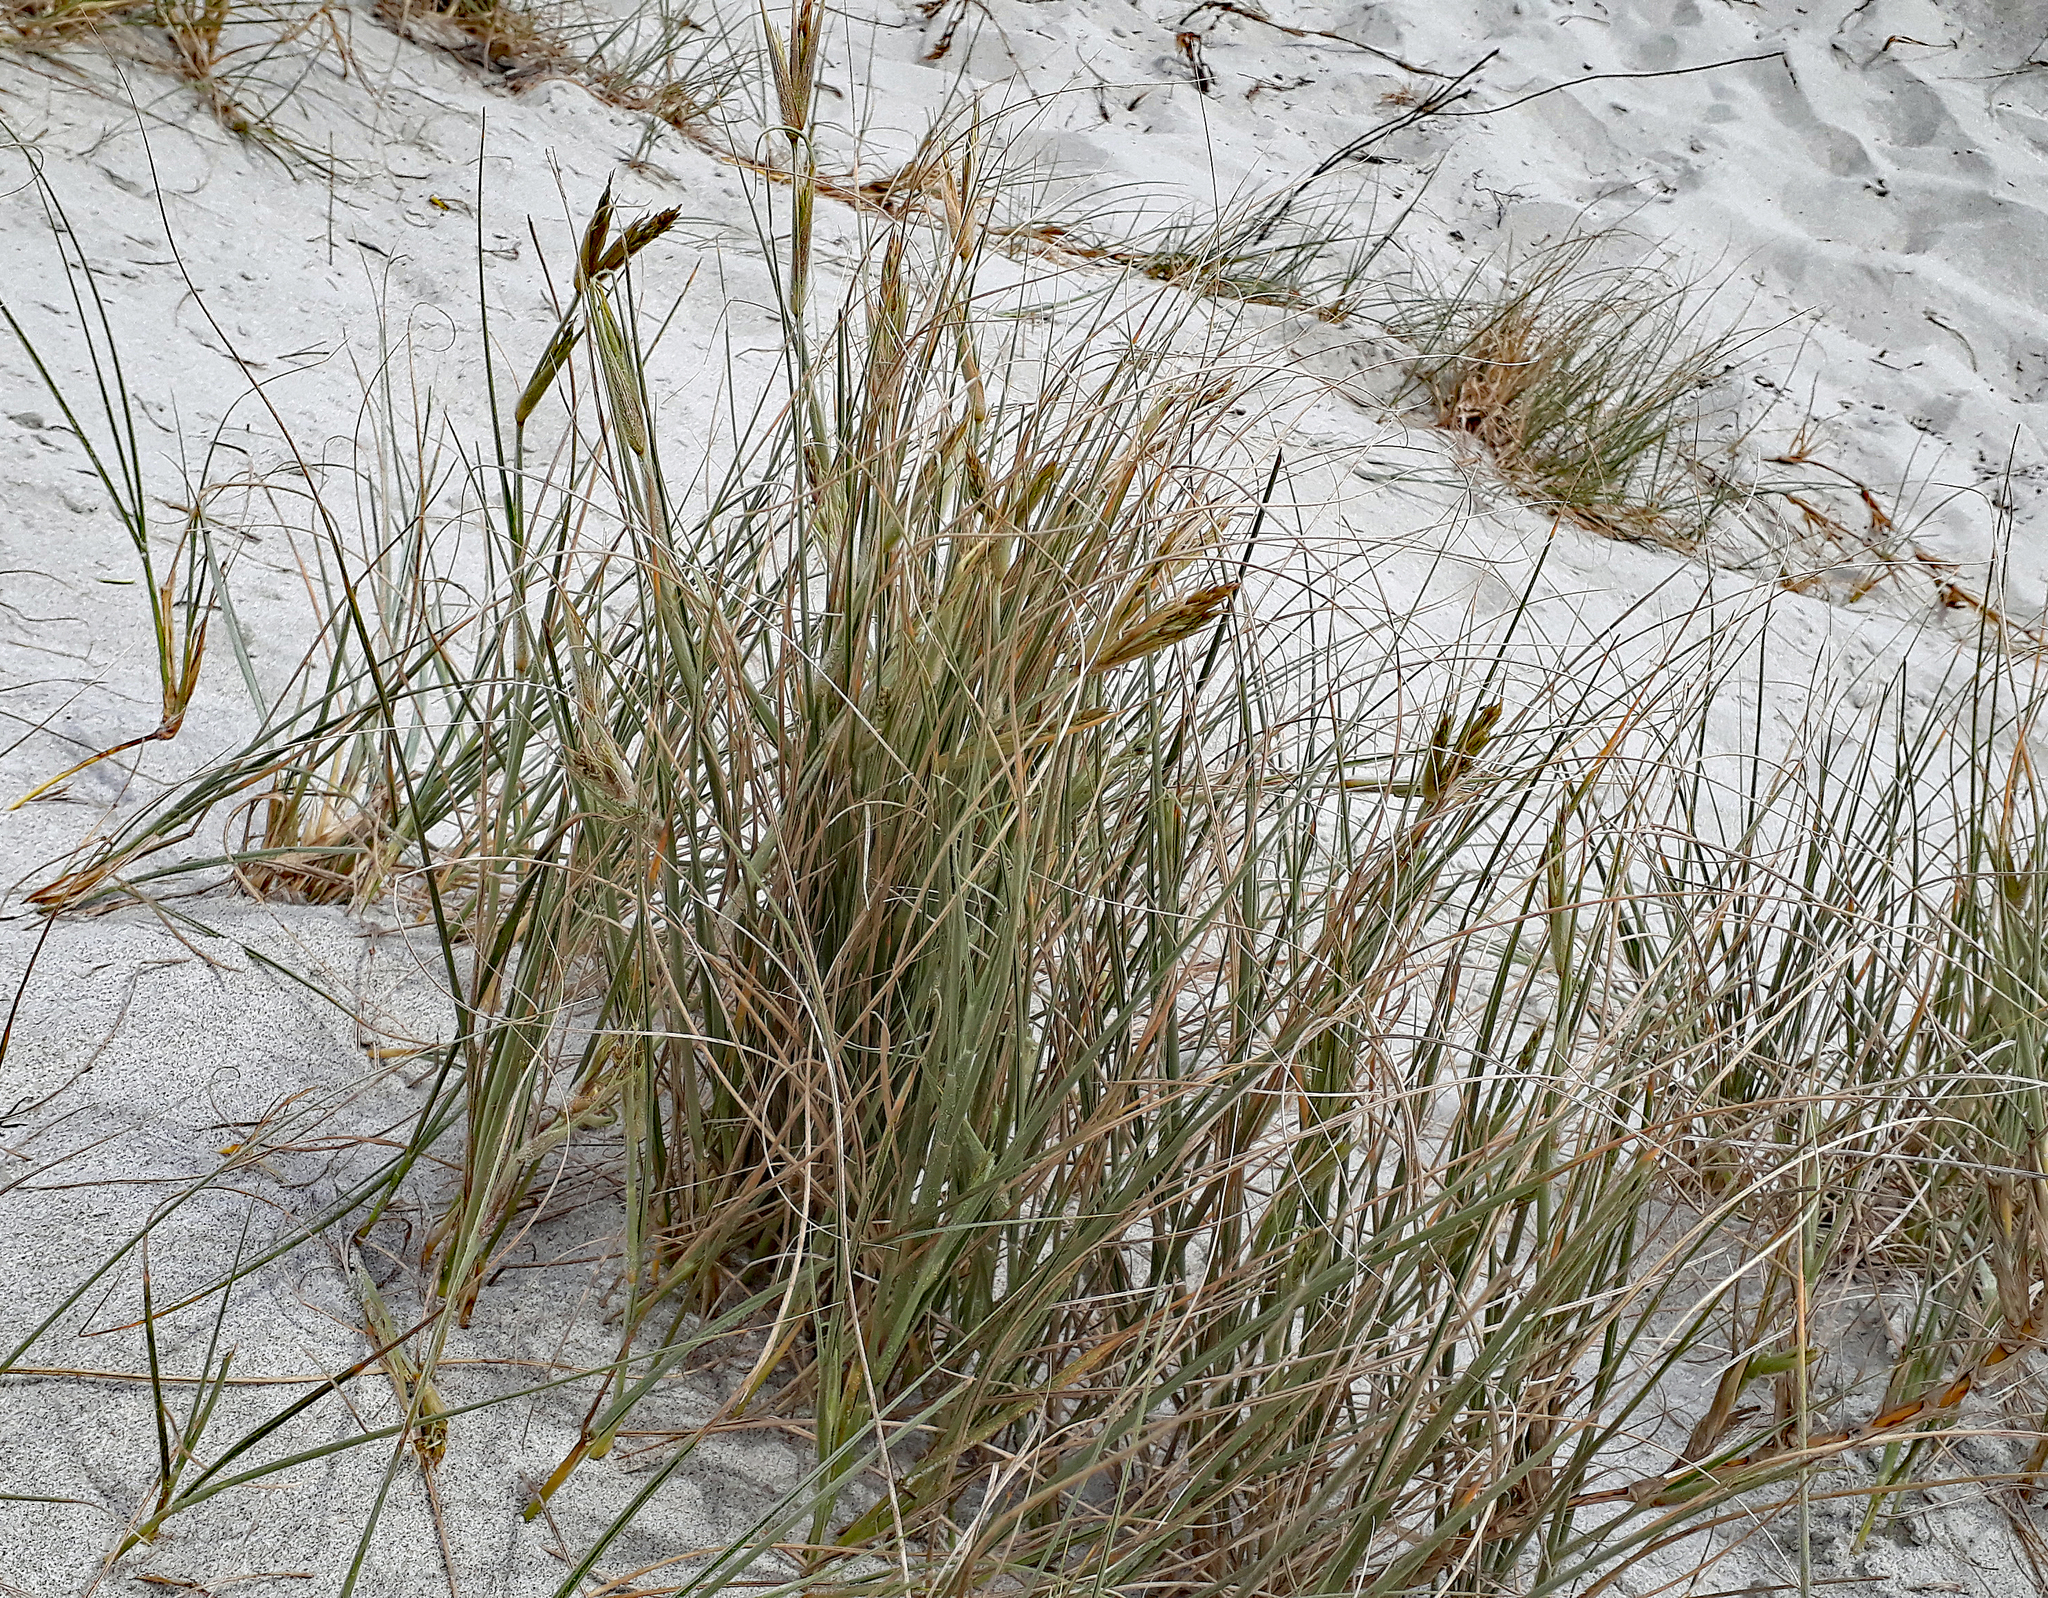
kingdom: Plantae
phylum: Tracheophyta
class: Liliopsida
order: Poales
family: Poaceae
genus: Spinifex
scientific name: Spinifex sericeus
